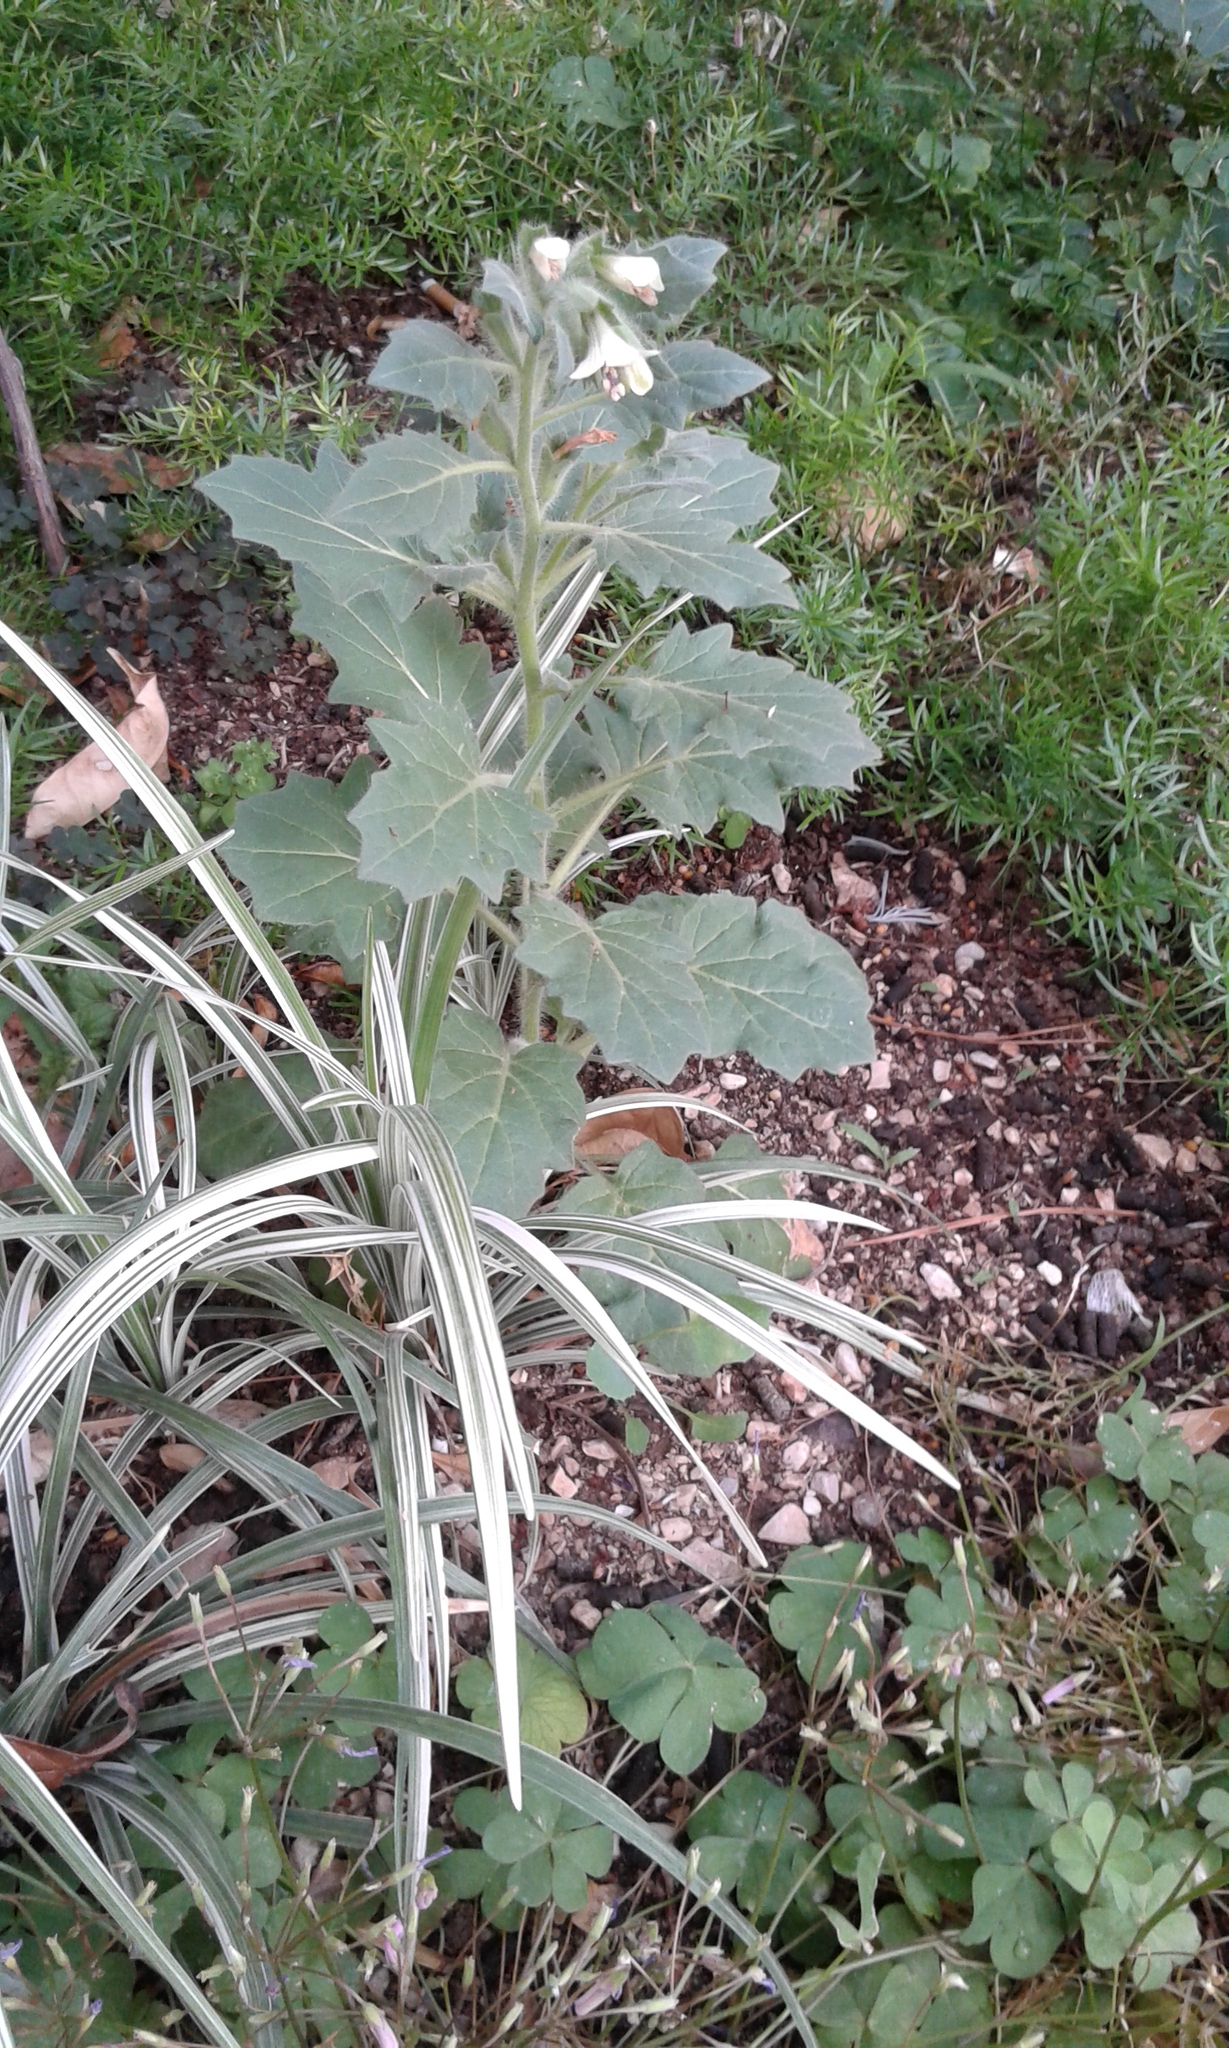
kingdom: Plantae
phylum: Tracheophyta
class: Magnoliopsida
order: Solanales
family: Solanaceae
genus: Hyoscyamus
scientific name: Hyoscyamus albus
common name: White henbane
